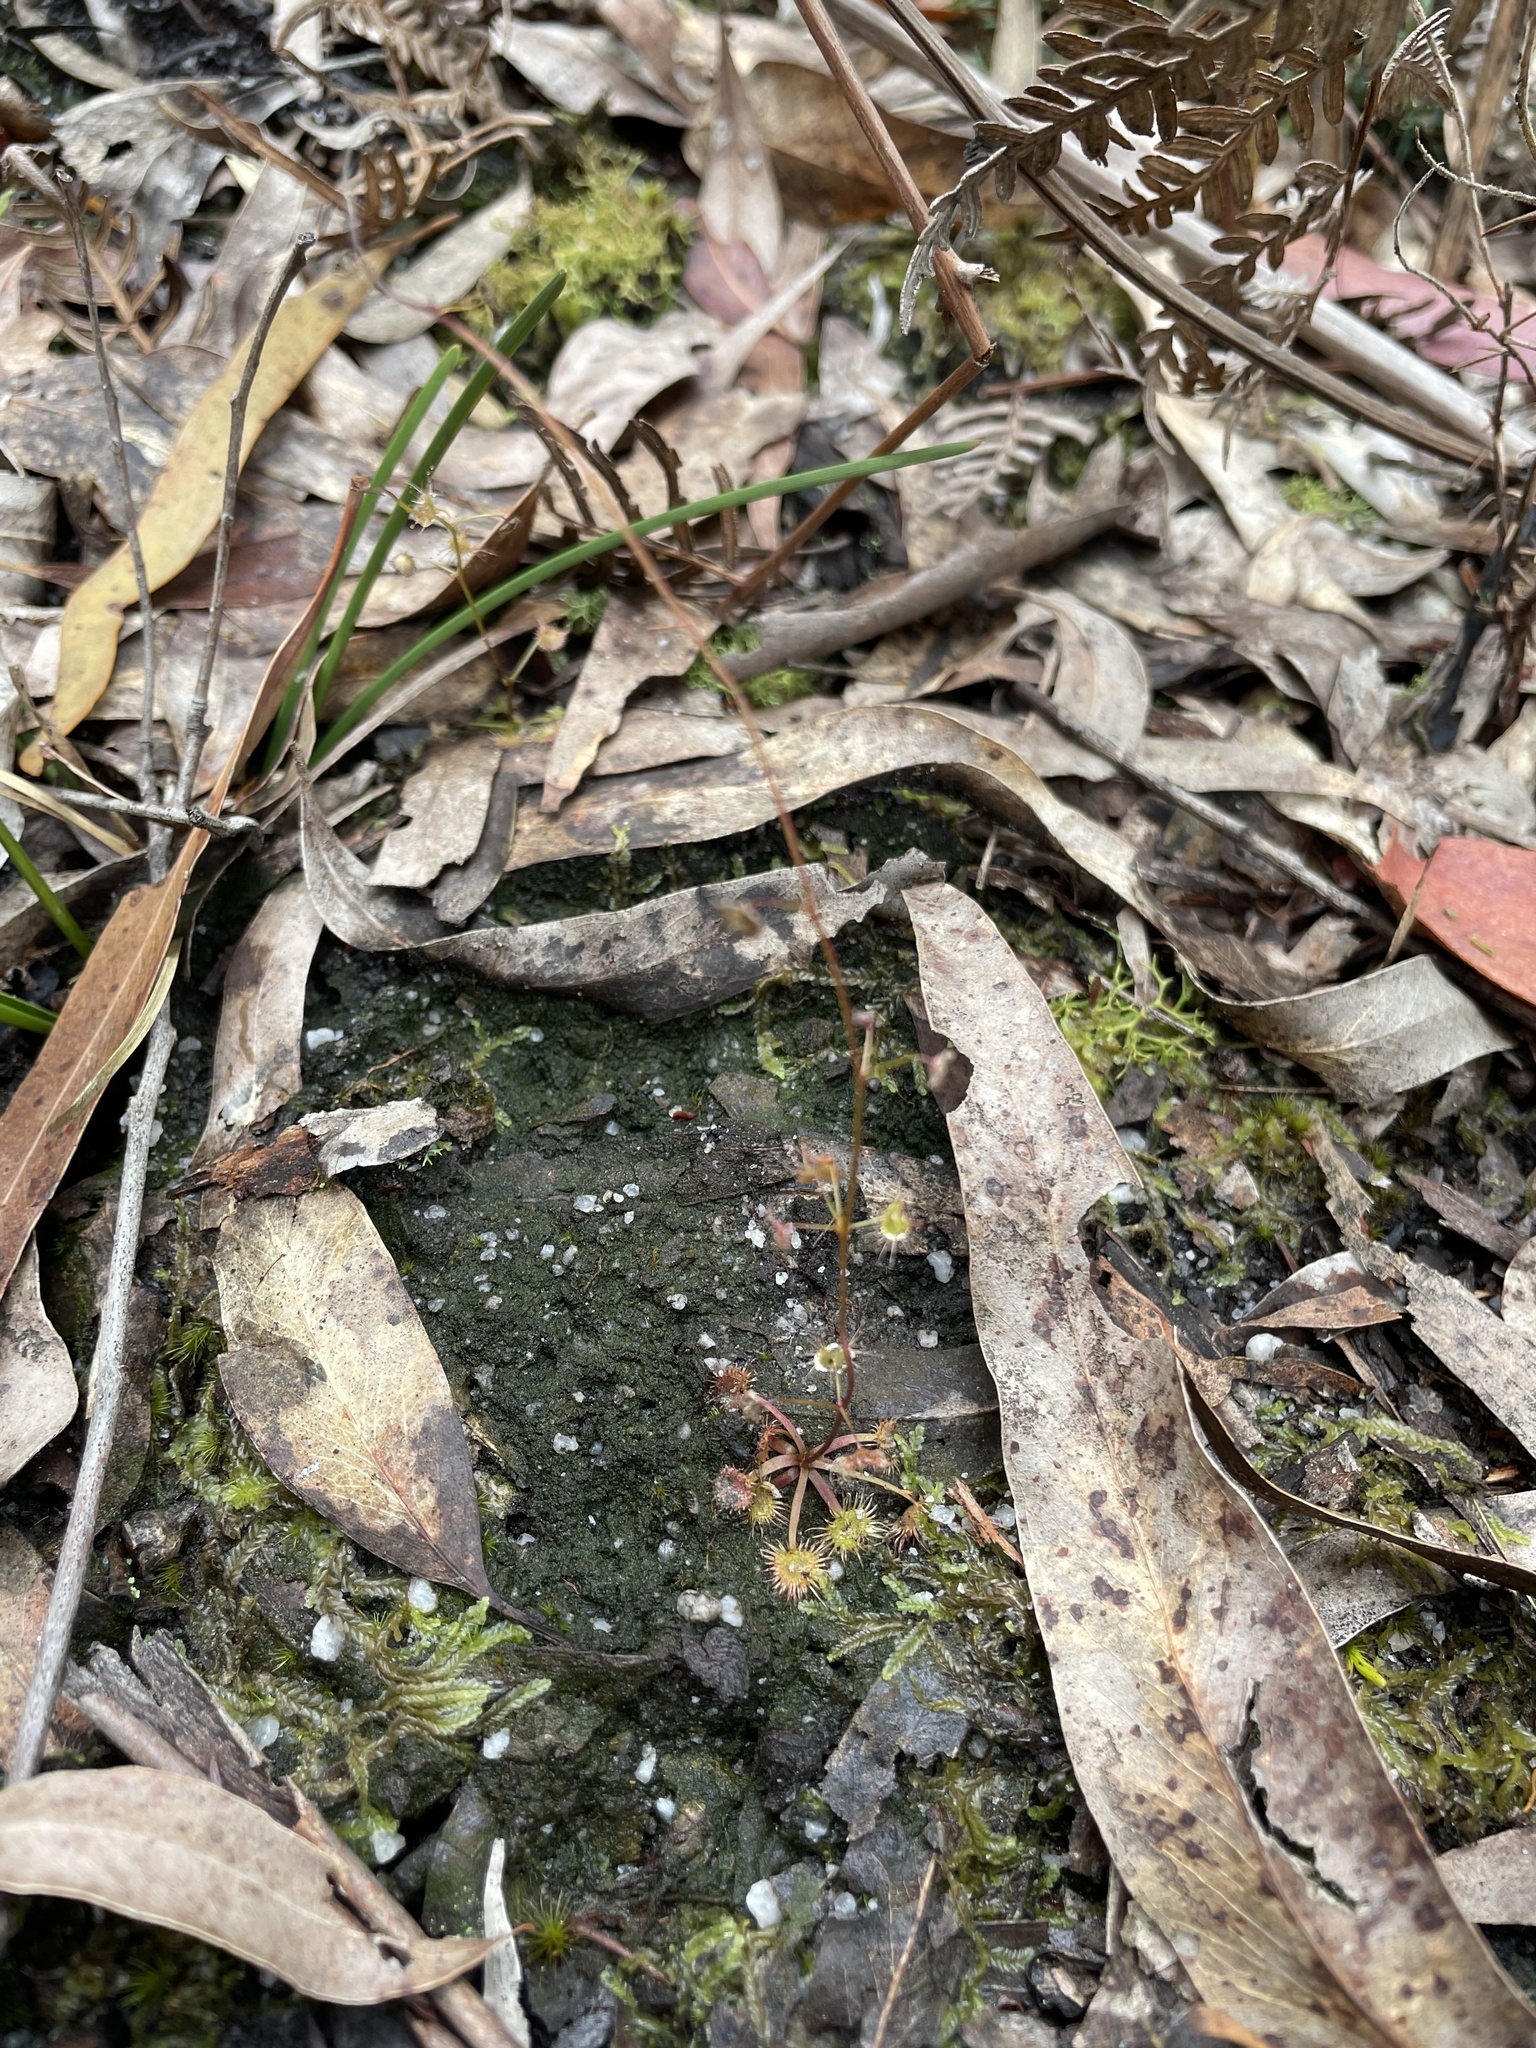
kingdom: Plantae
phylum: Tracheophyta
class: Magnoliopsida
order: Caryophyllales
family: Droseraceae
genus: Drosera
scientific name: Drosera peltata
